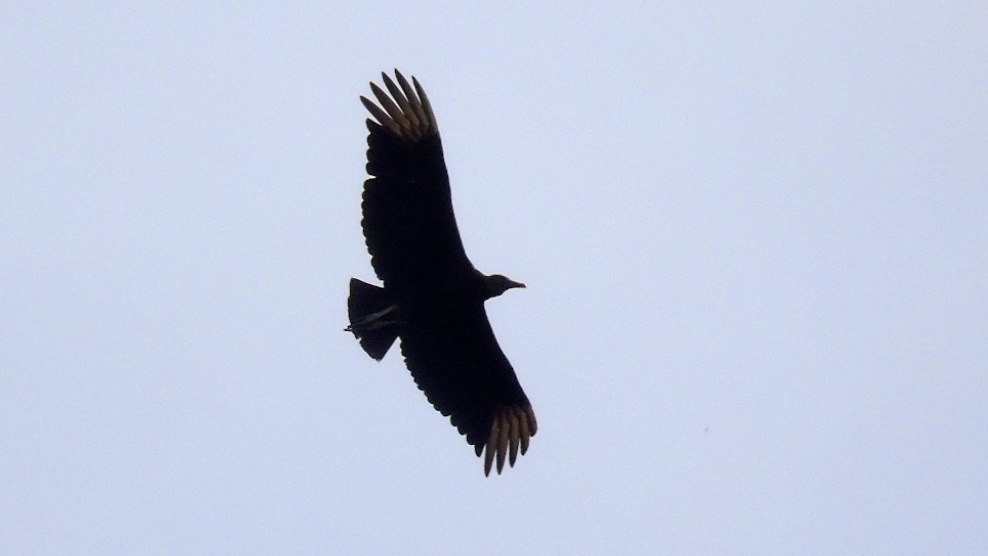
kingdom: Animalia
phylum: Chordata
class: Aves
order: Accipitriformes
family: Cathartidae
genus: Coragyps
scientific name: Coragyps atratus
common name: Black vulture
